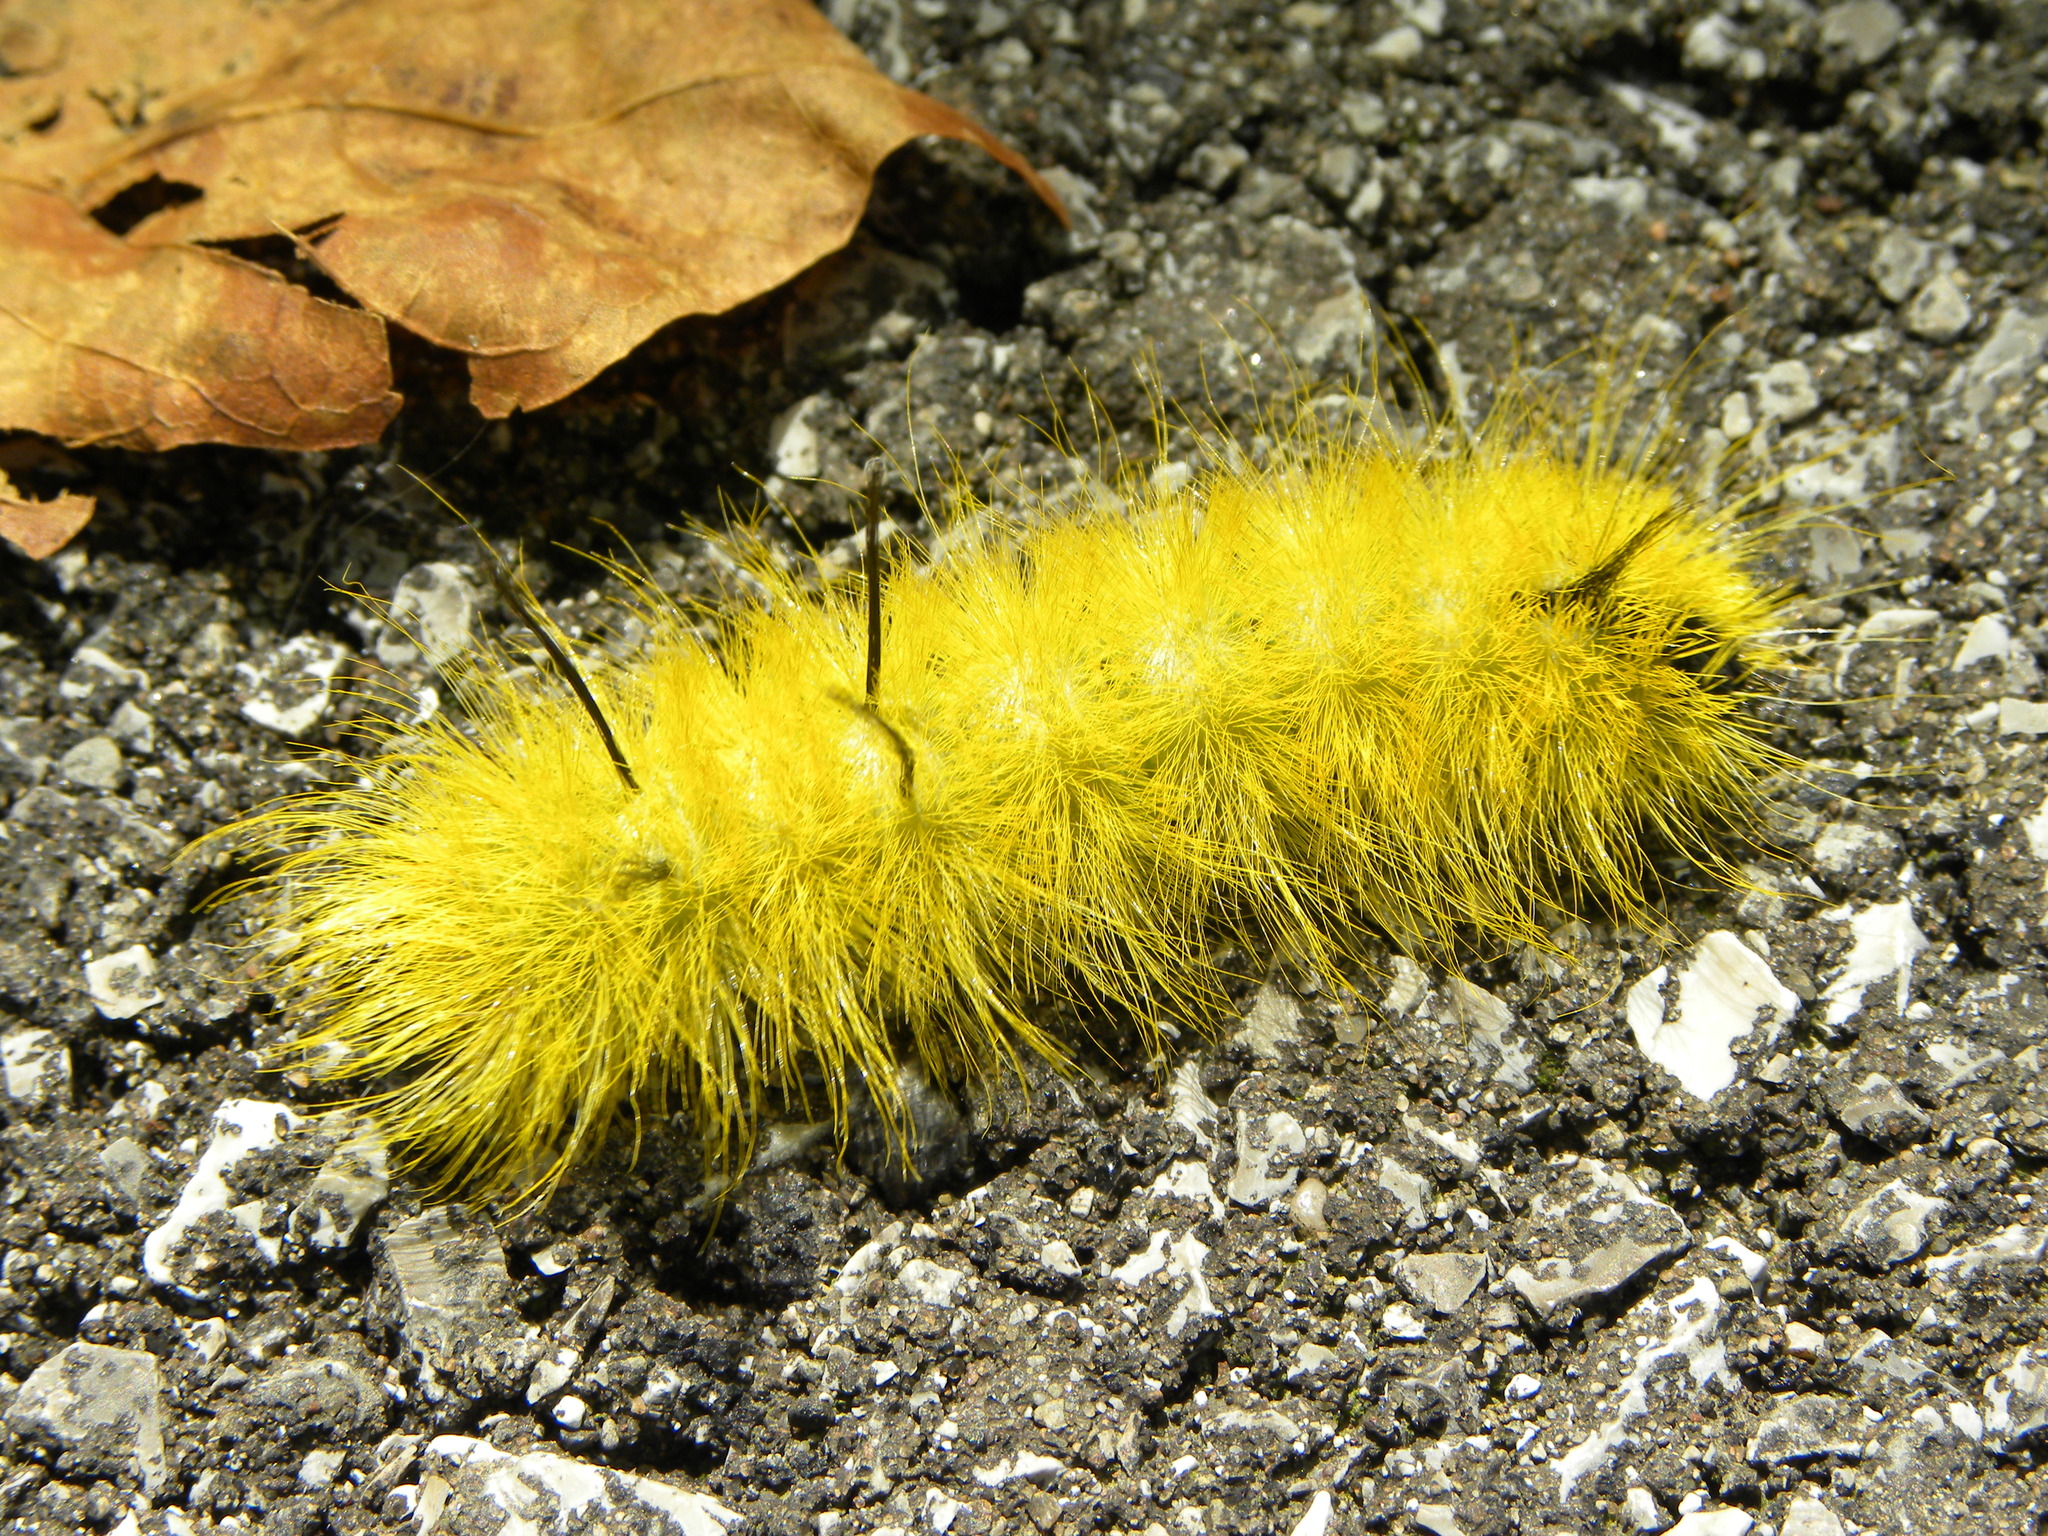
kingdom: Animalia
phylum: Arthropoda
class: Insecta
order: Lepidoptera
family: Noctuidae
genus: Acronicta
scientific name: Acronicta americana
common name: American dagger
